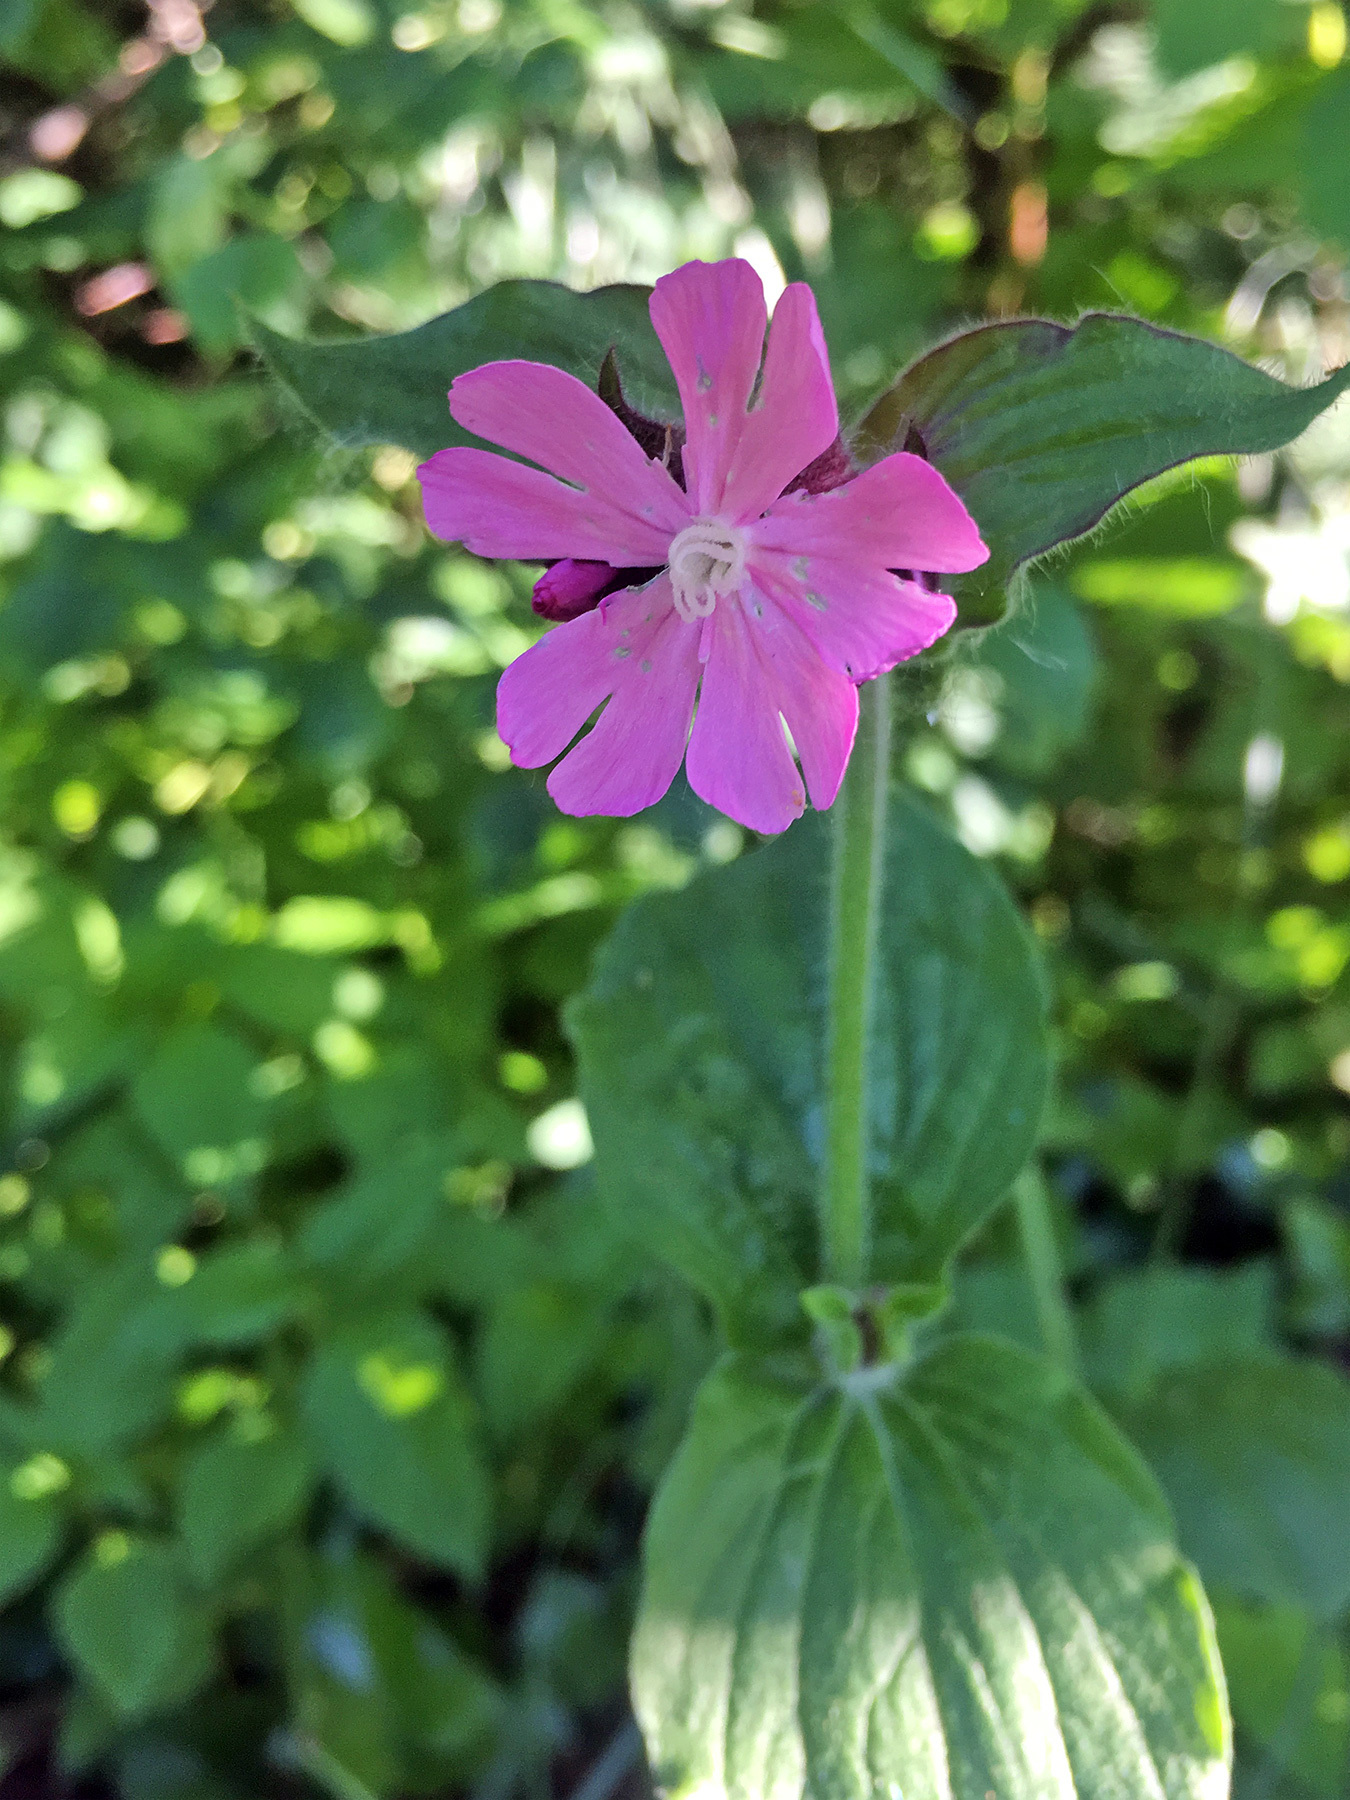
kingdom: Plantae
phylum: Tracheophyta
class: Magnoliopsida
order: Caryophyllales
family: Caryophyllaceae
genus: Silene
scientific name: Silene dioica
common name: Red campion
